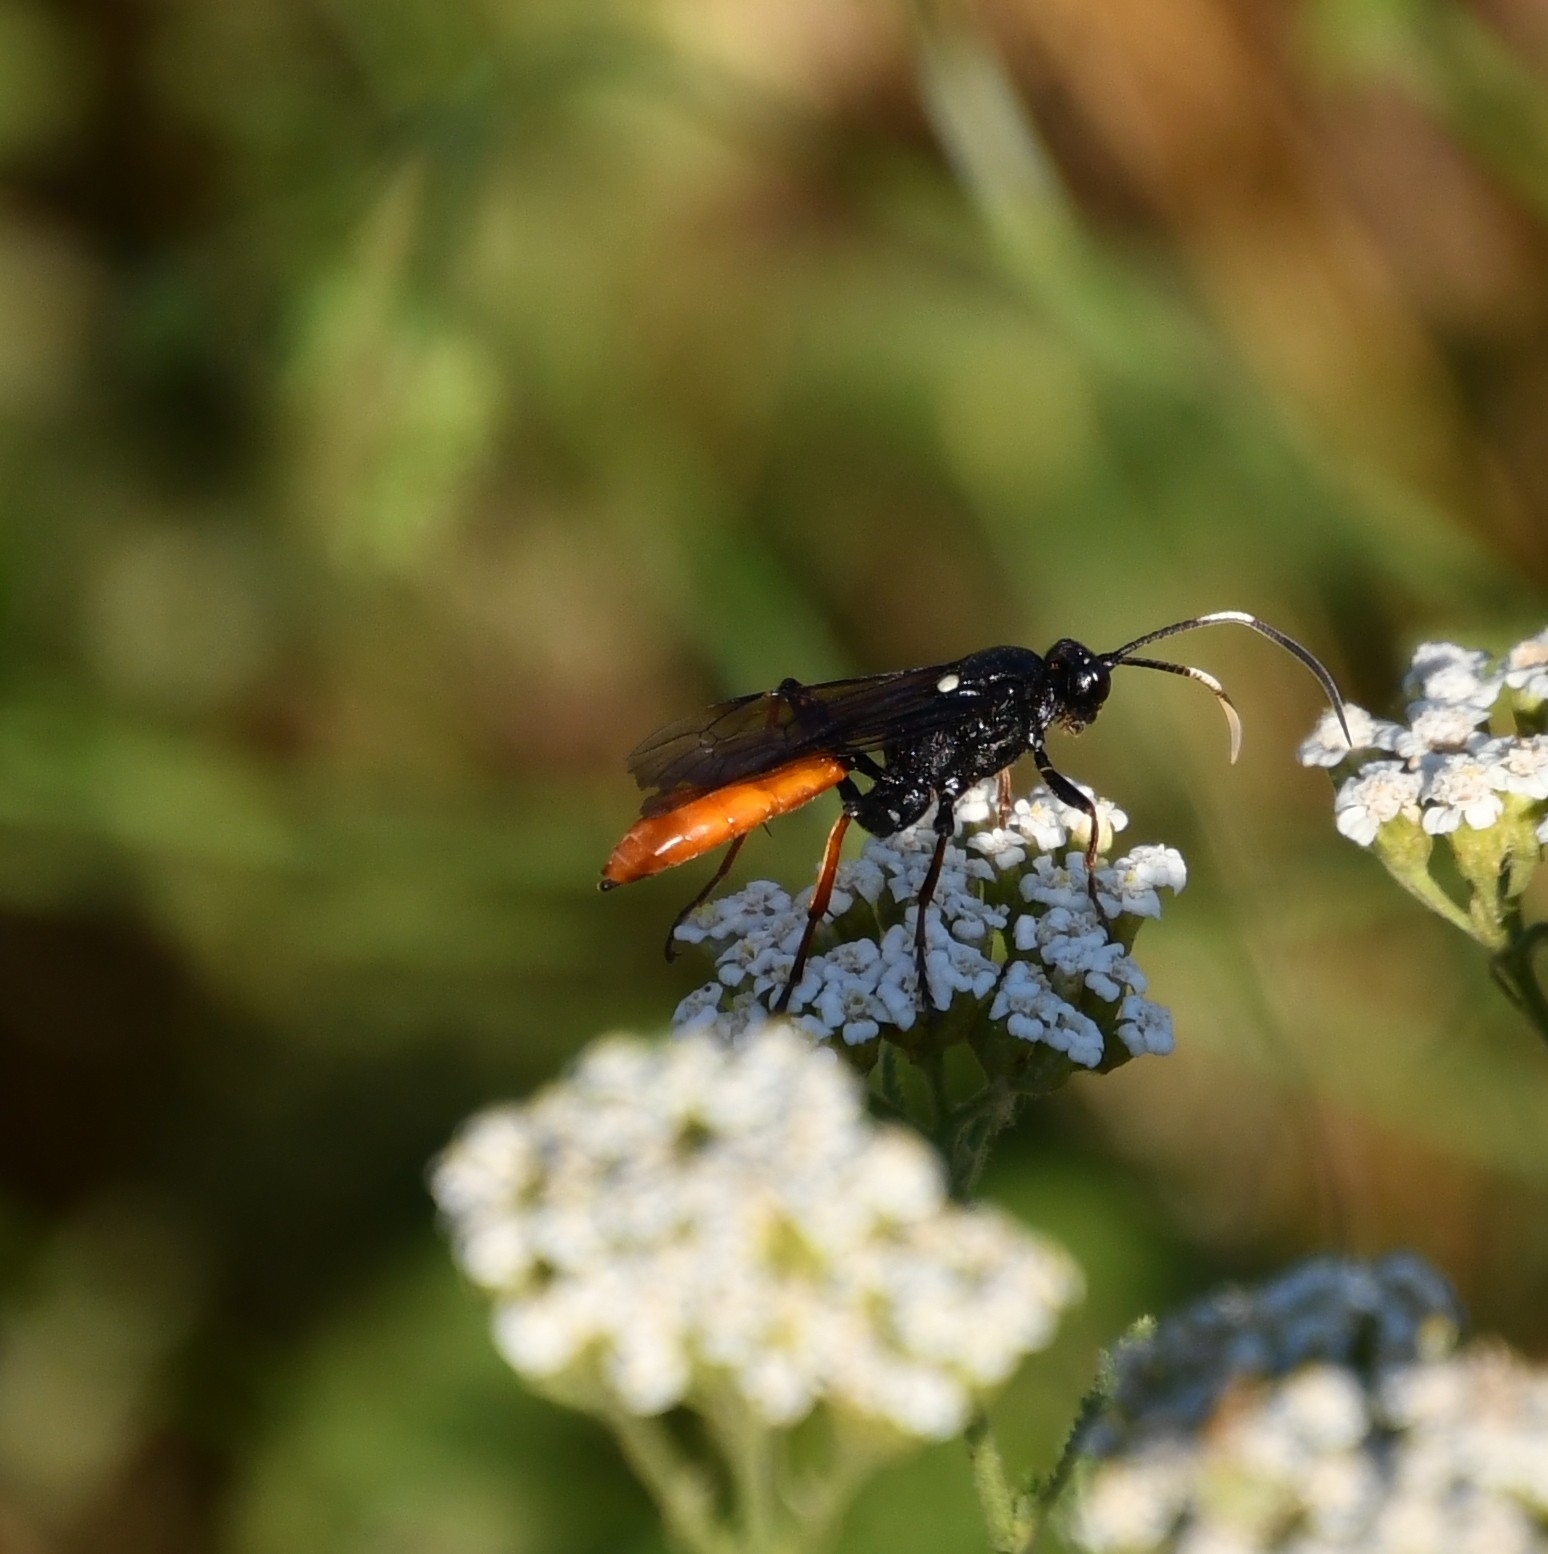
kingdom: Animalia
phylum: Arthropoda
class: Insecta
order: Hymenoptera
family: Ichneumonidae
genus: Protichneumon
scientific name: Protichneumon fusorius
